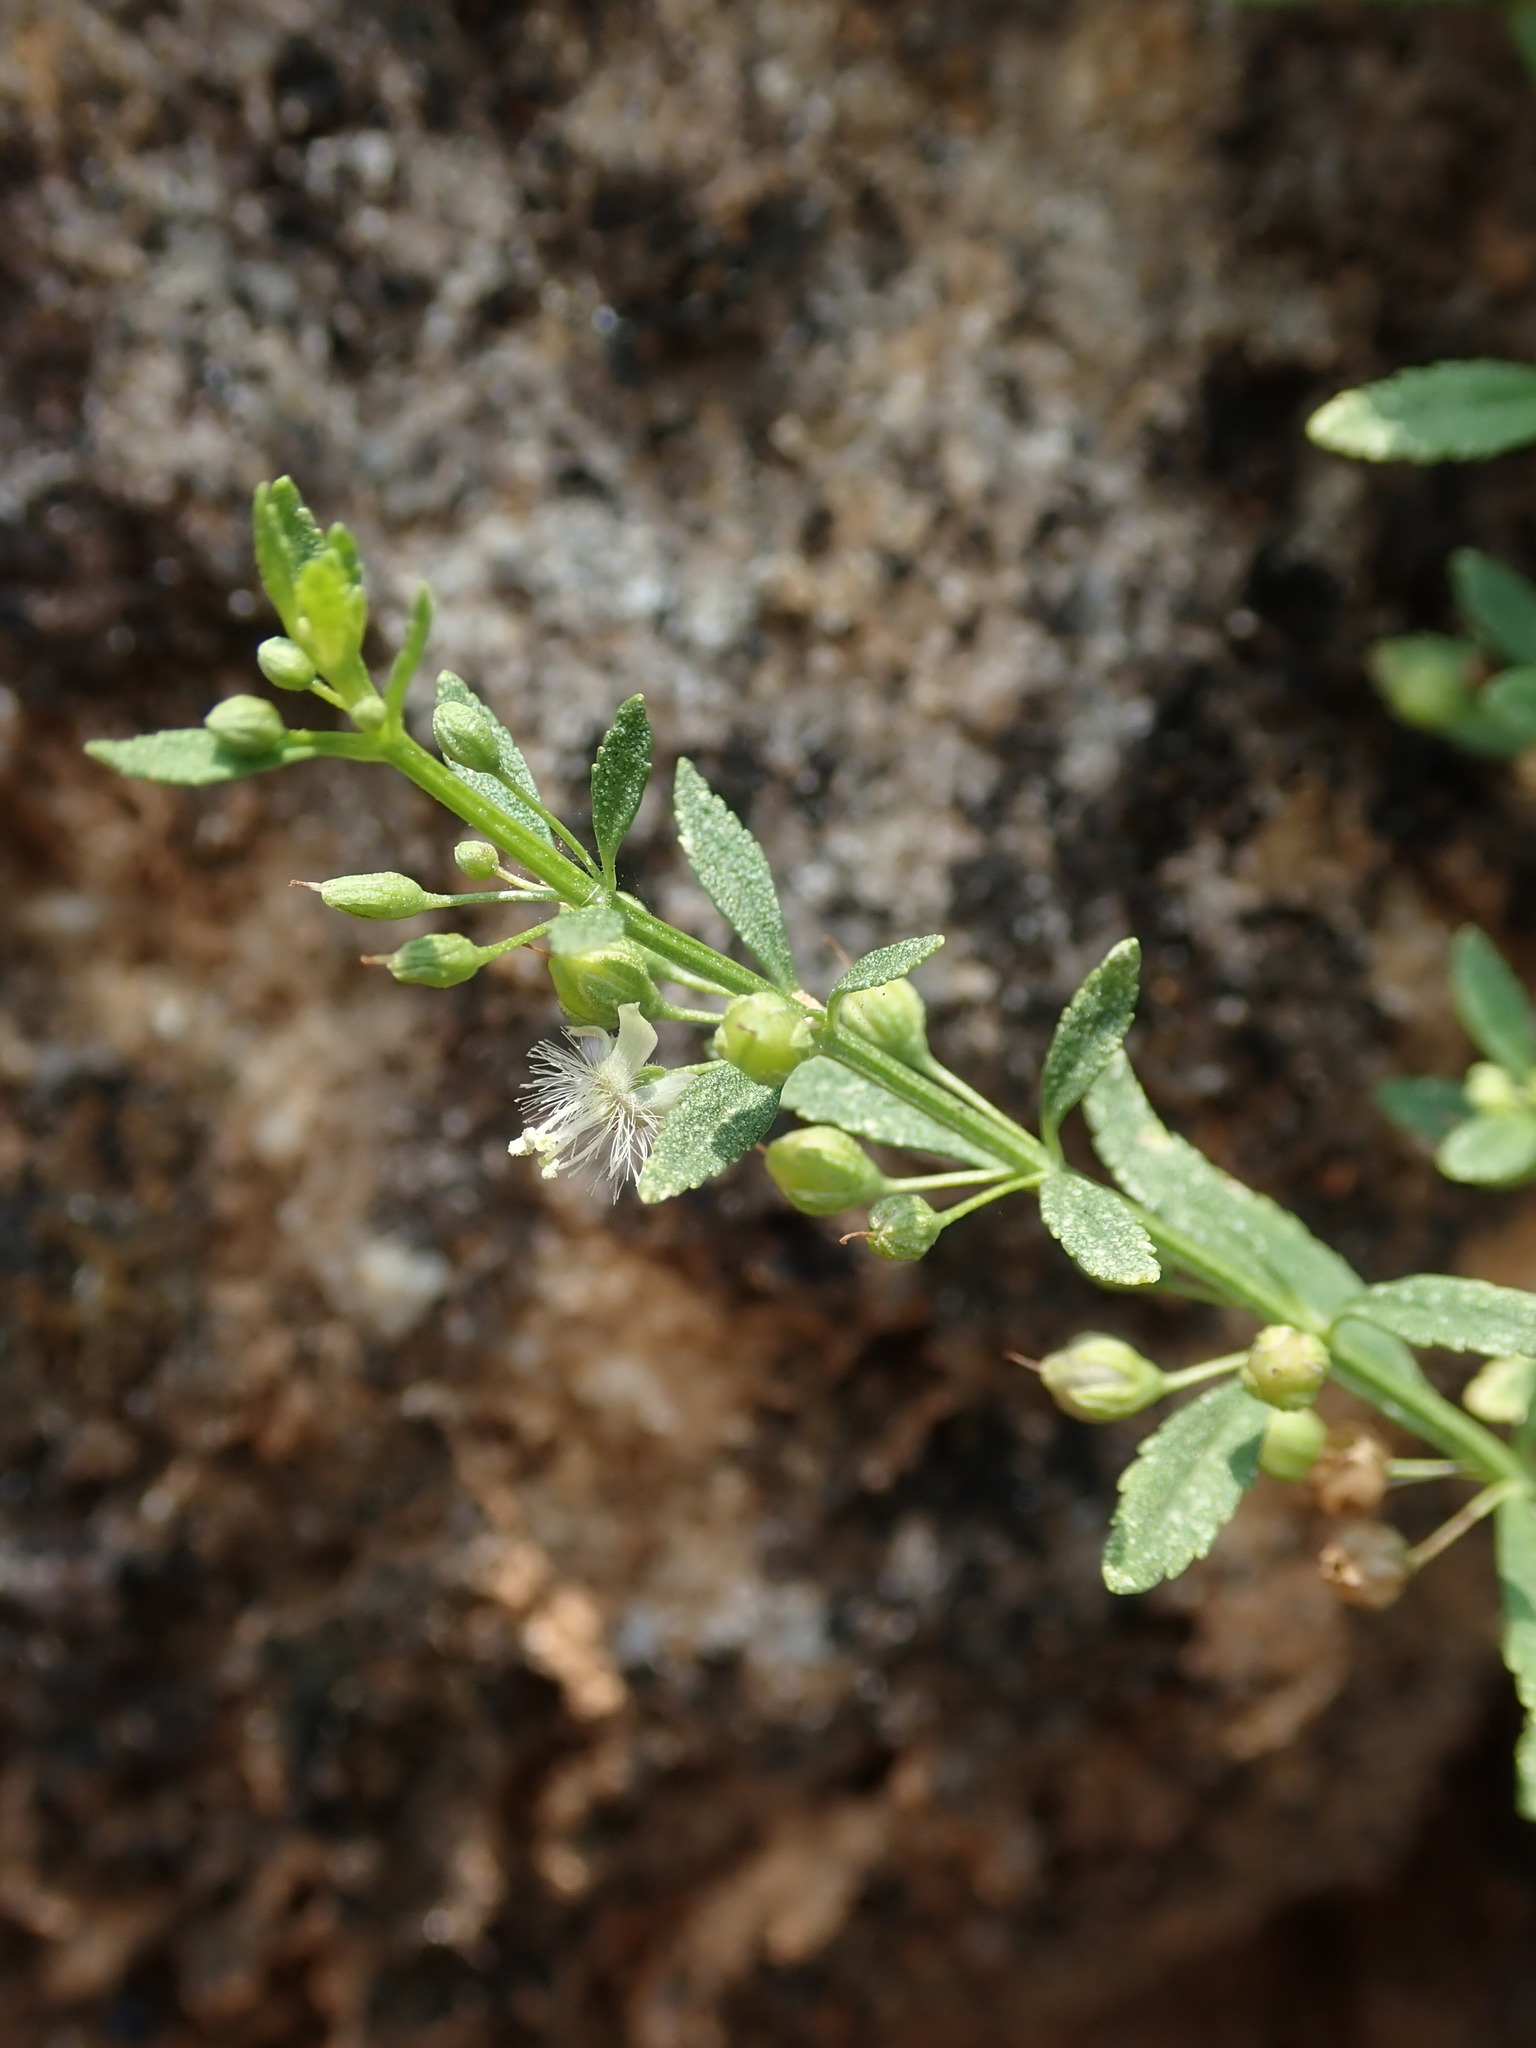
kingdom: Plantae
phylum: Tracheophyta
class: Magnoliopsida
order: Lamiales
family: Plantaginaceae
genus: Scoparia
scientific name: Scoparia dulcis
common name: Scoparia-weed
